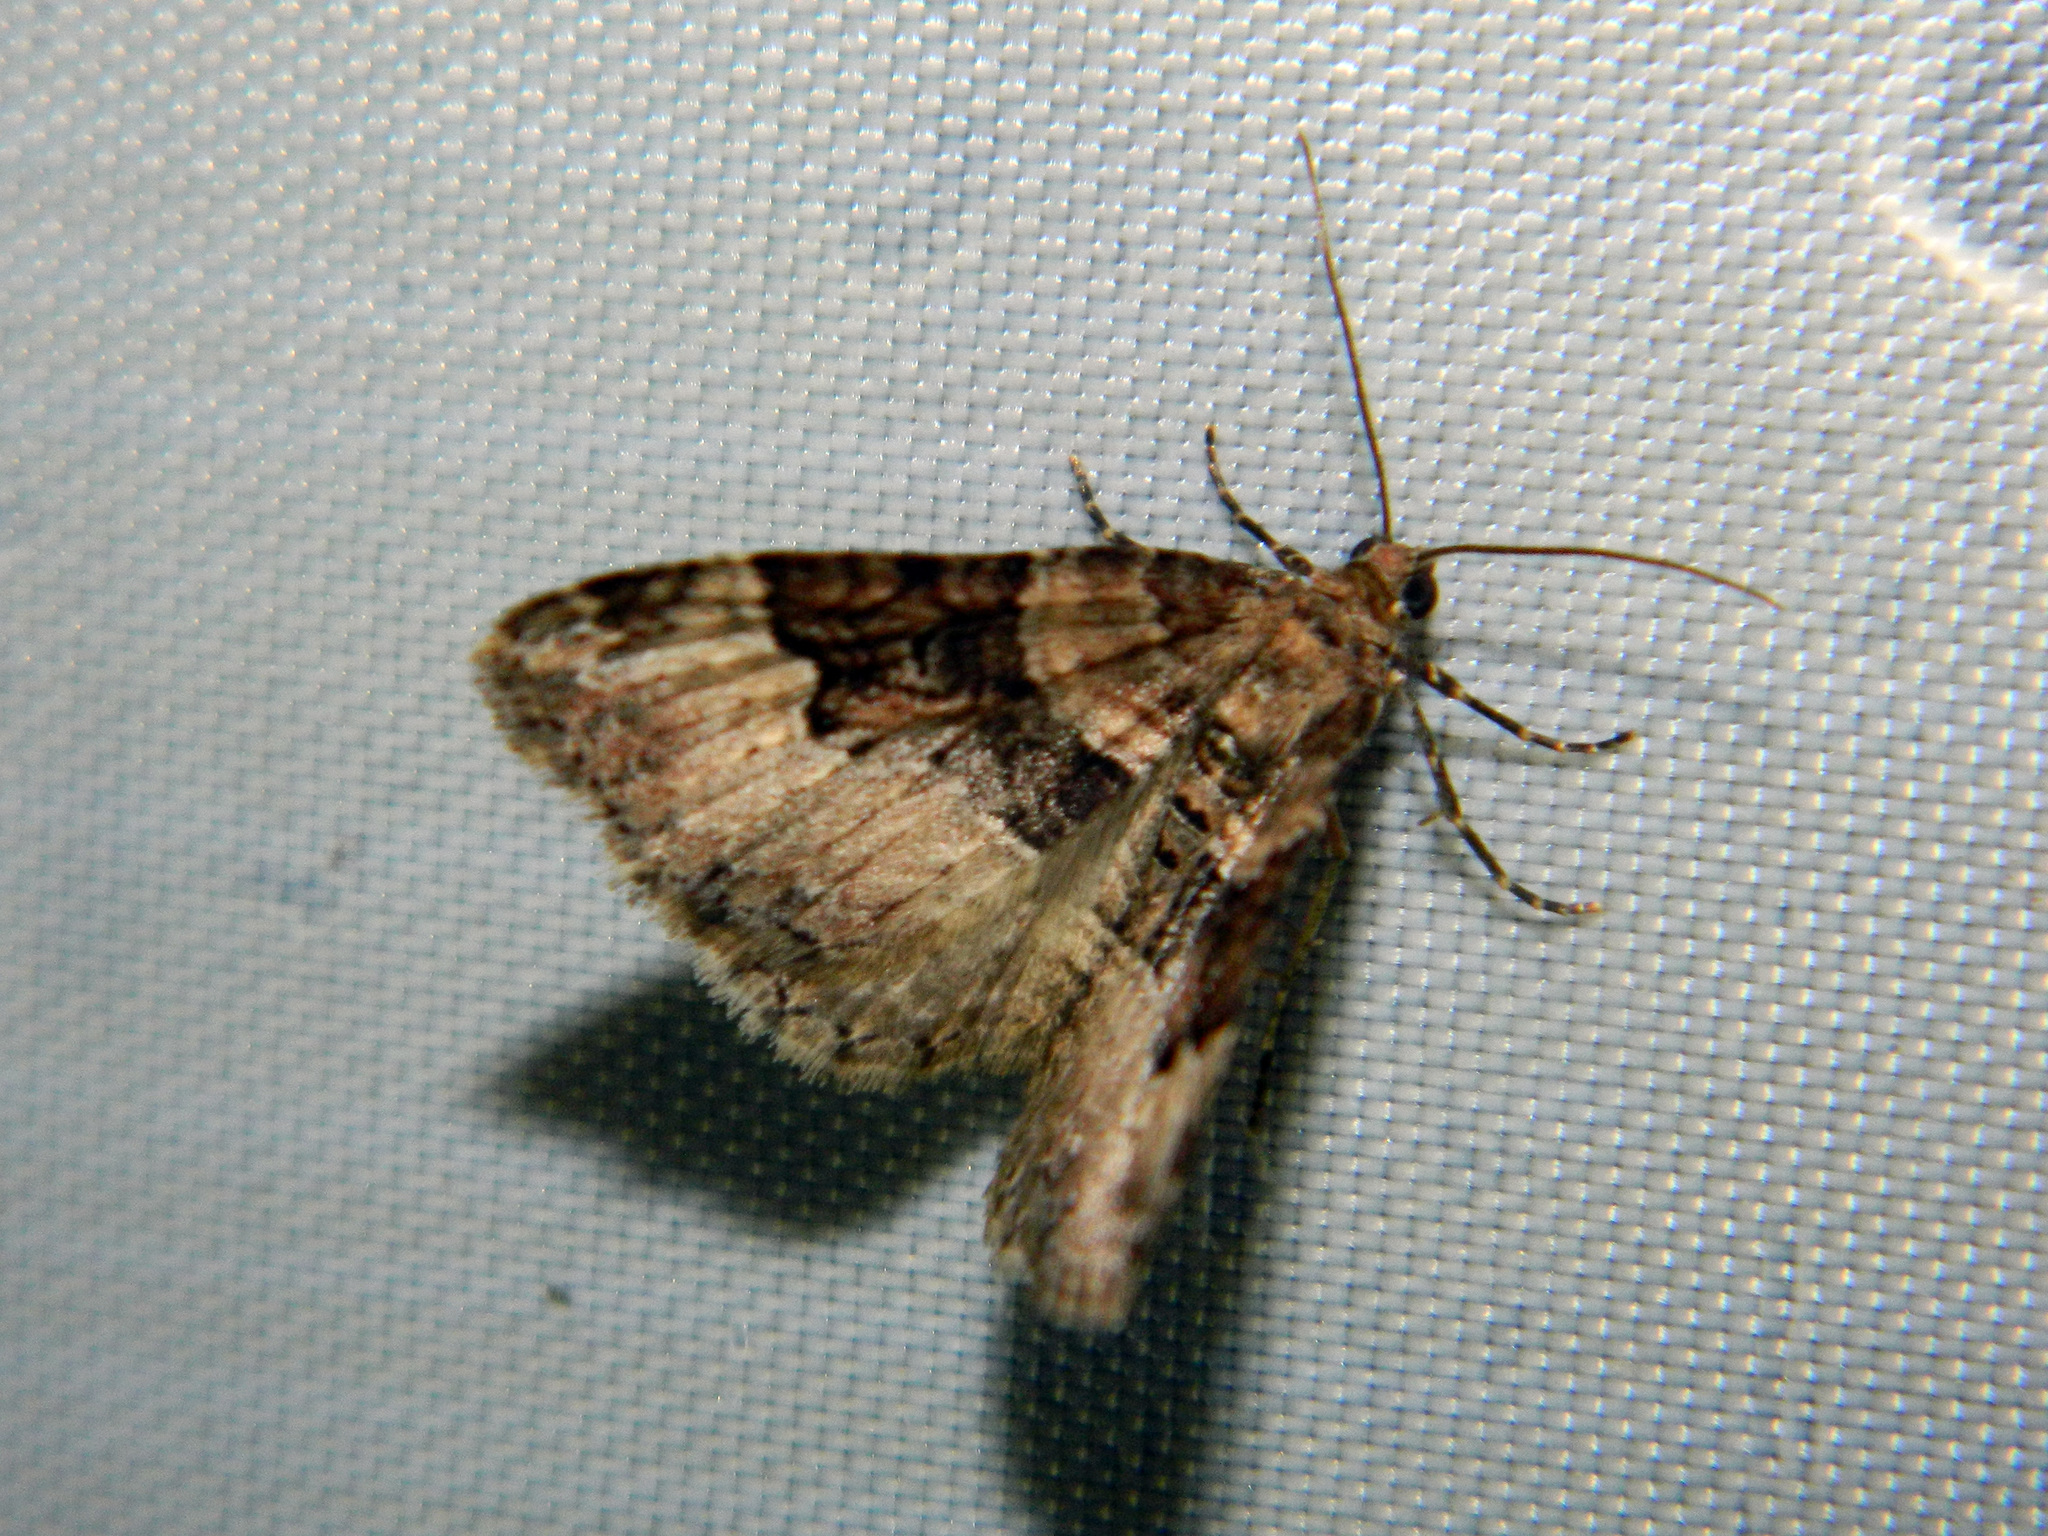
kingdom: Animalia
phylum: Arthropoda
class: Insecta
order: Lepidoptera
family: Geometridae
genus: Xanthorhoe
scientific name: Xanthorhoe lacustrata
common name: Toothed brown carpet
